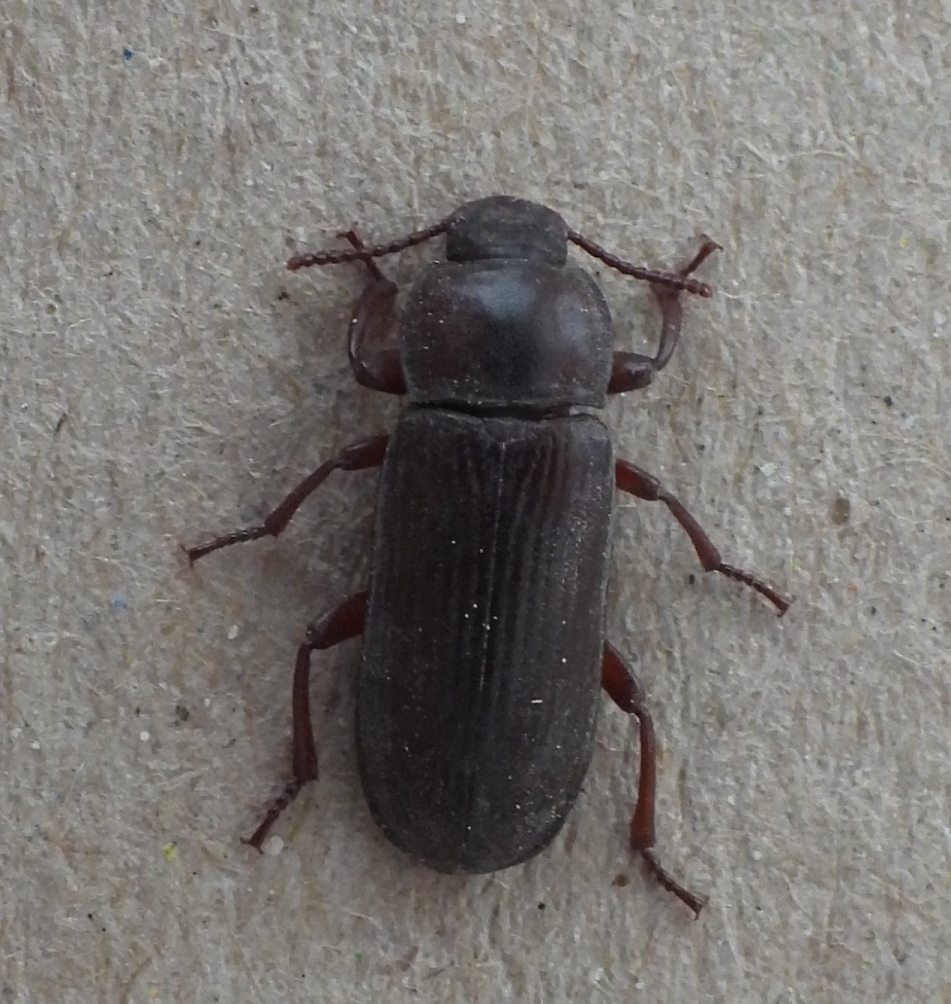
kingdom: Animalia
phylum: Arthropoda
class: Insecta
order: Coleoptera
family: Tenebrionidae
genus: Tenebrio
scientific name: Tenebrio molitor
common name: Hardback beetle
